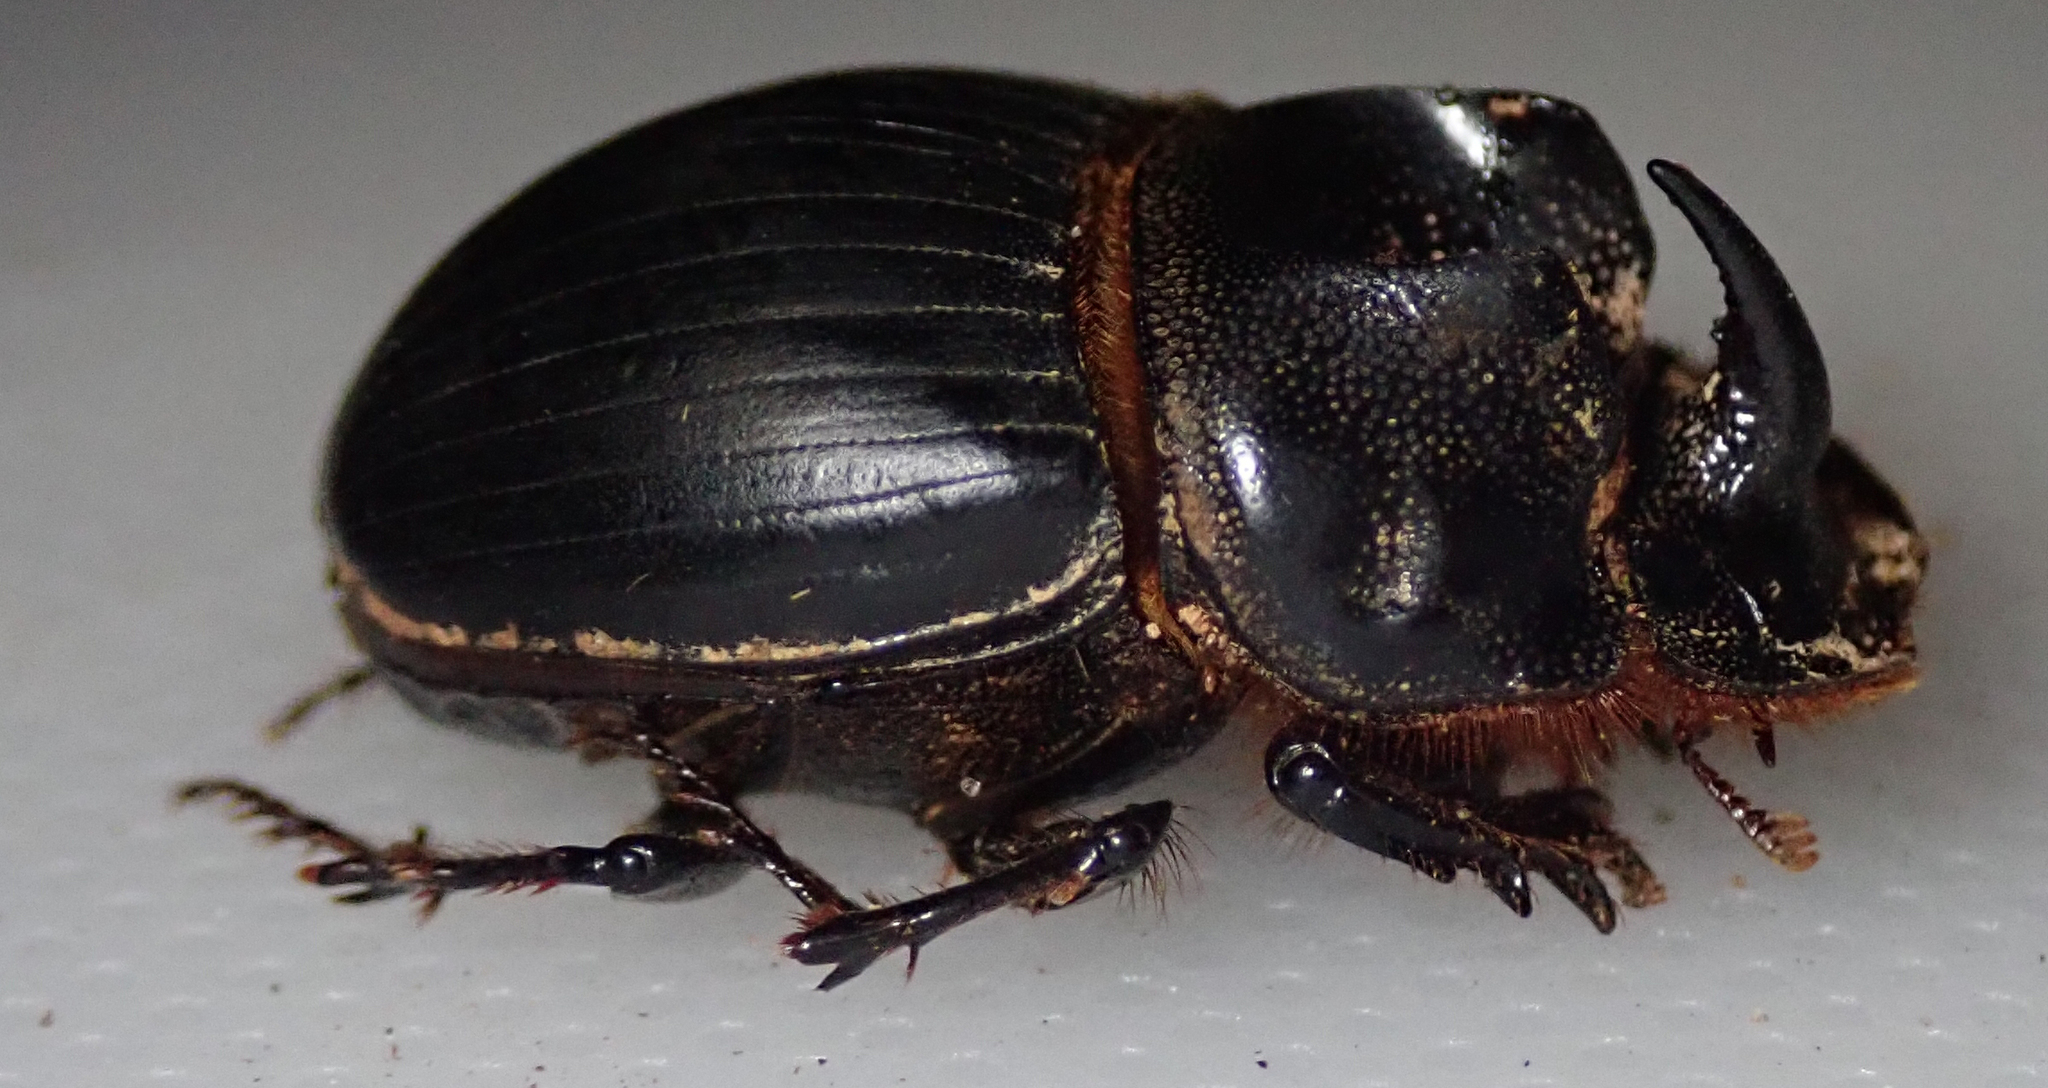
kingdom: Animalia
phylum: Arthropoda
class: Insecta
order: Coleoptera
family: Scarabaeidae
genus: Copris
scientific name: Copris bootes
